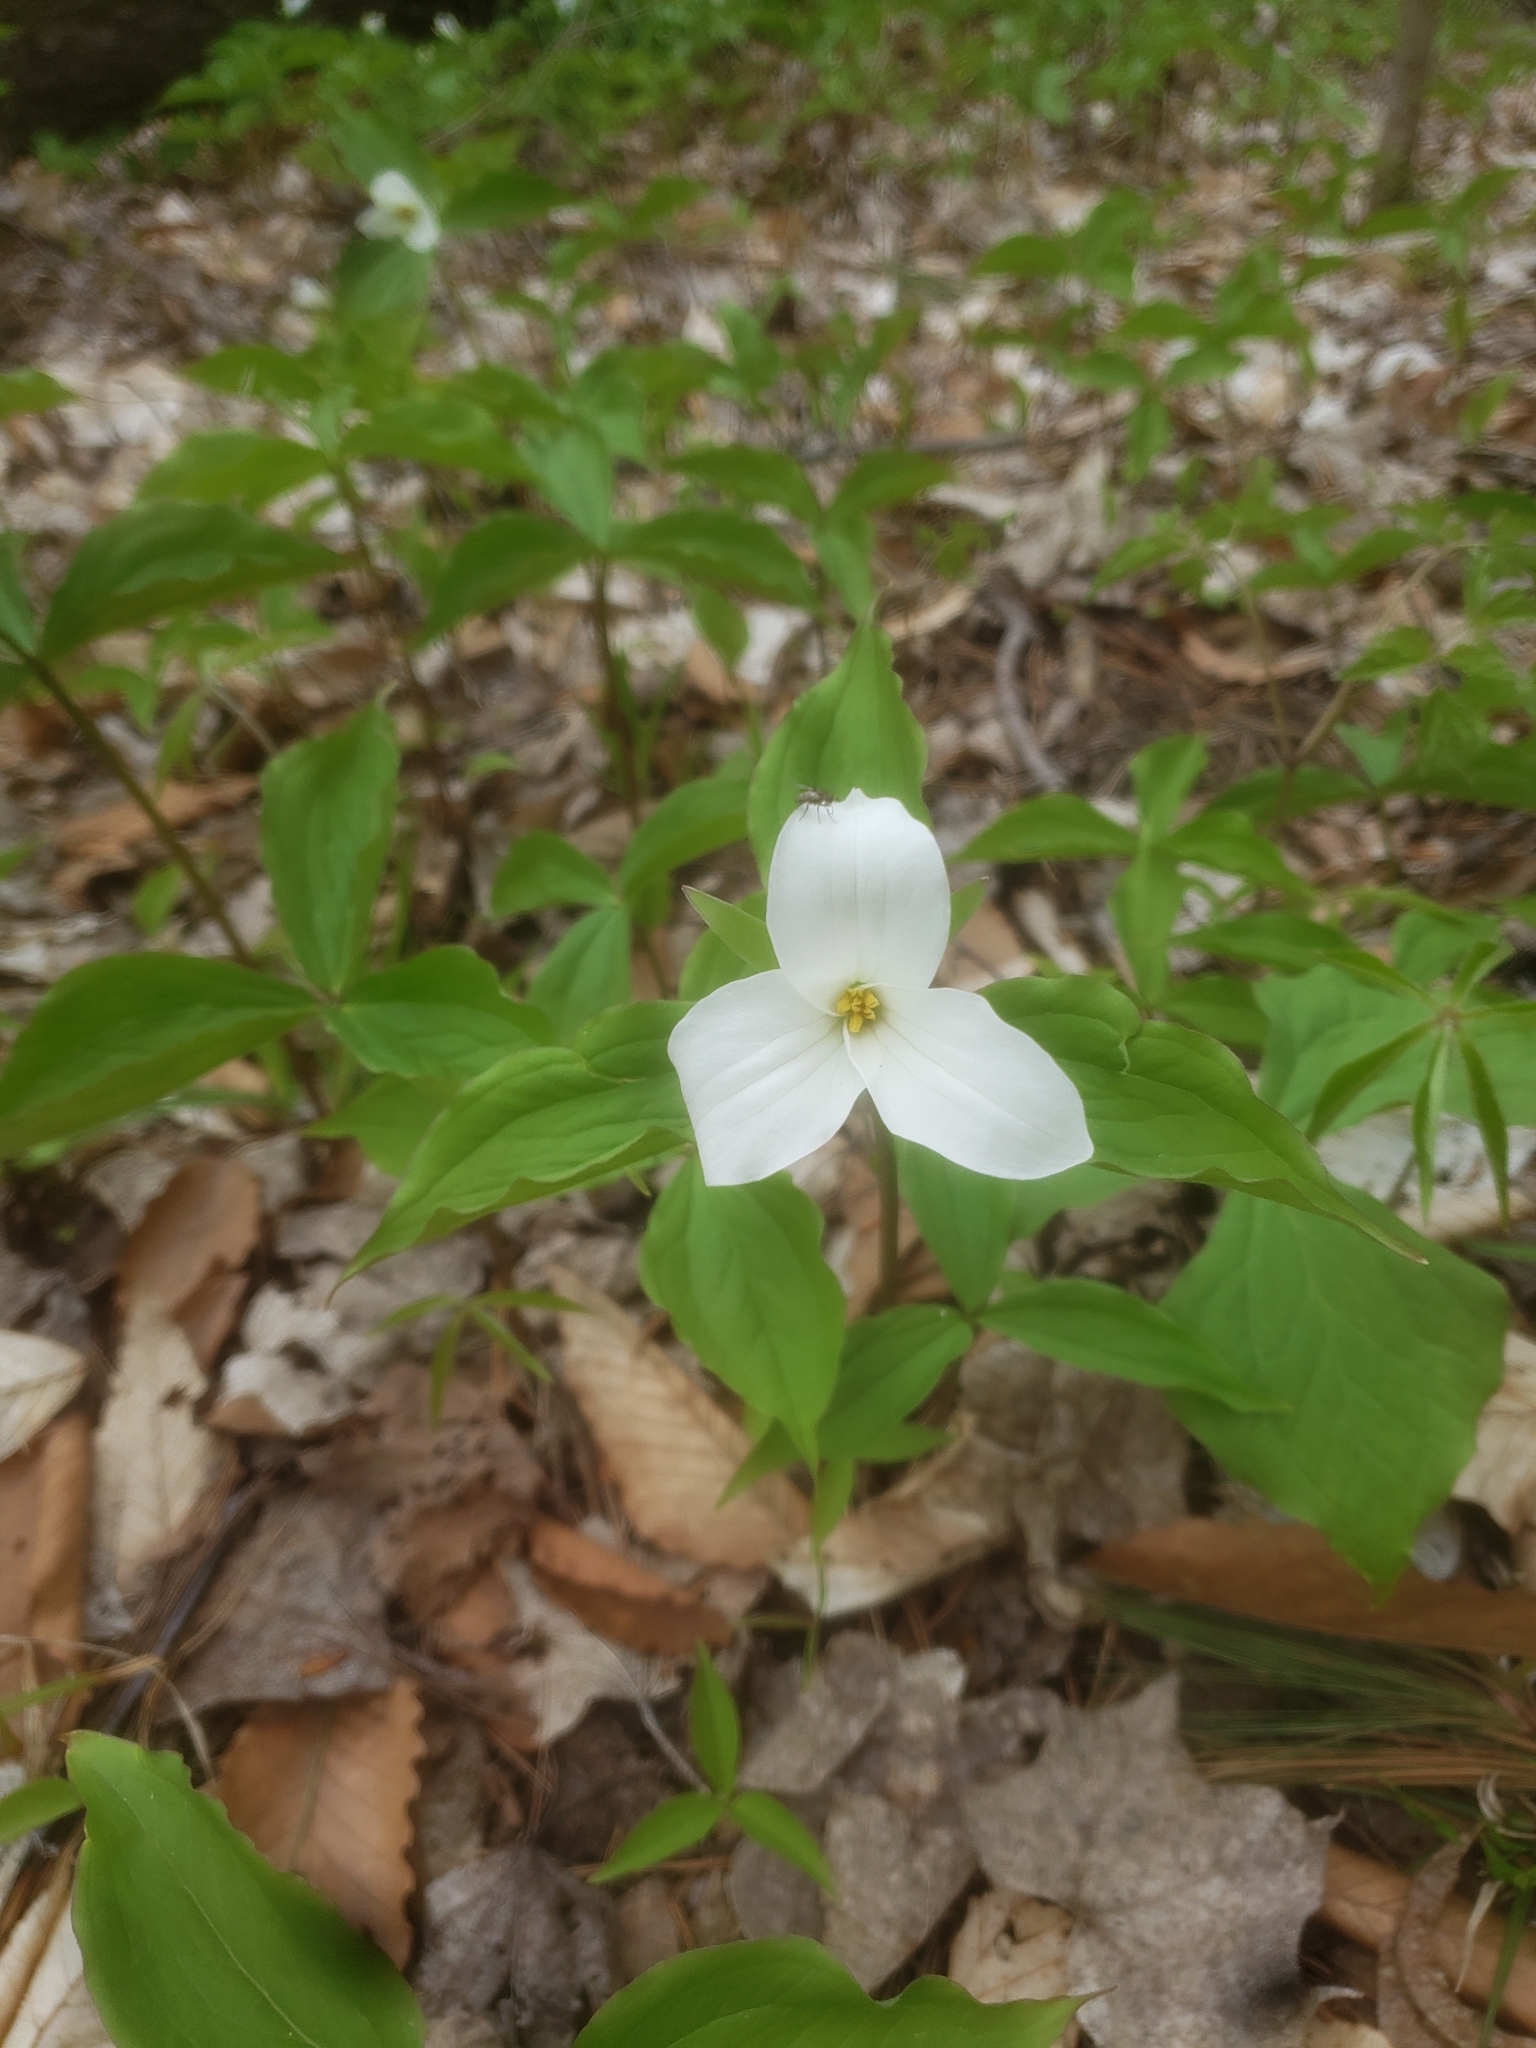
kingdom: Plantae
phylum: Tracheophyta
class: Liliopsida
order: Liliales
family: Melanthiaceae
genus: Trillium
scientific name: Trillium grandiflorum
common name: Great white trillium
